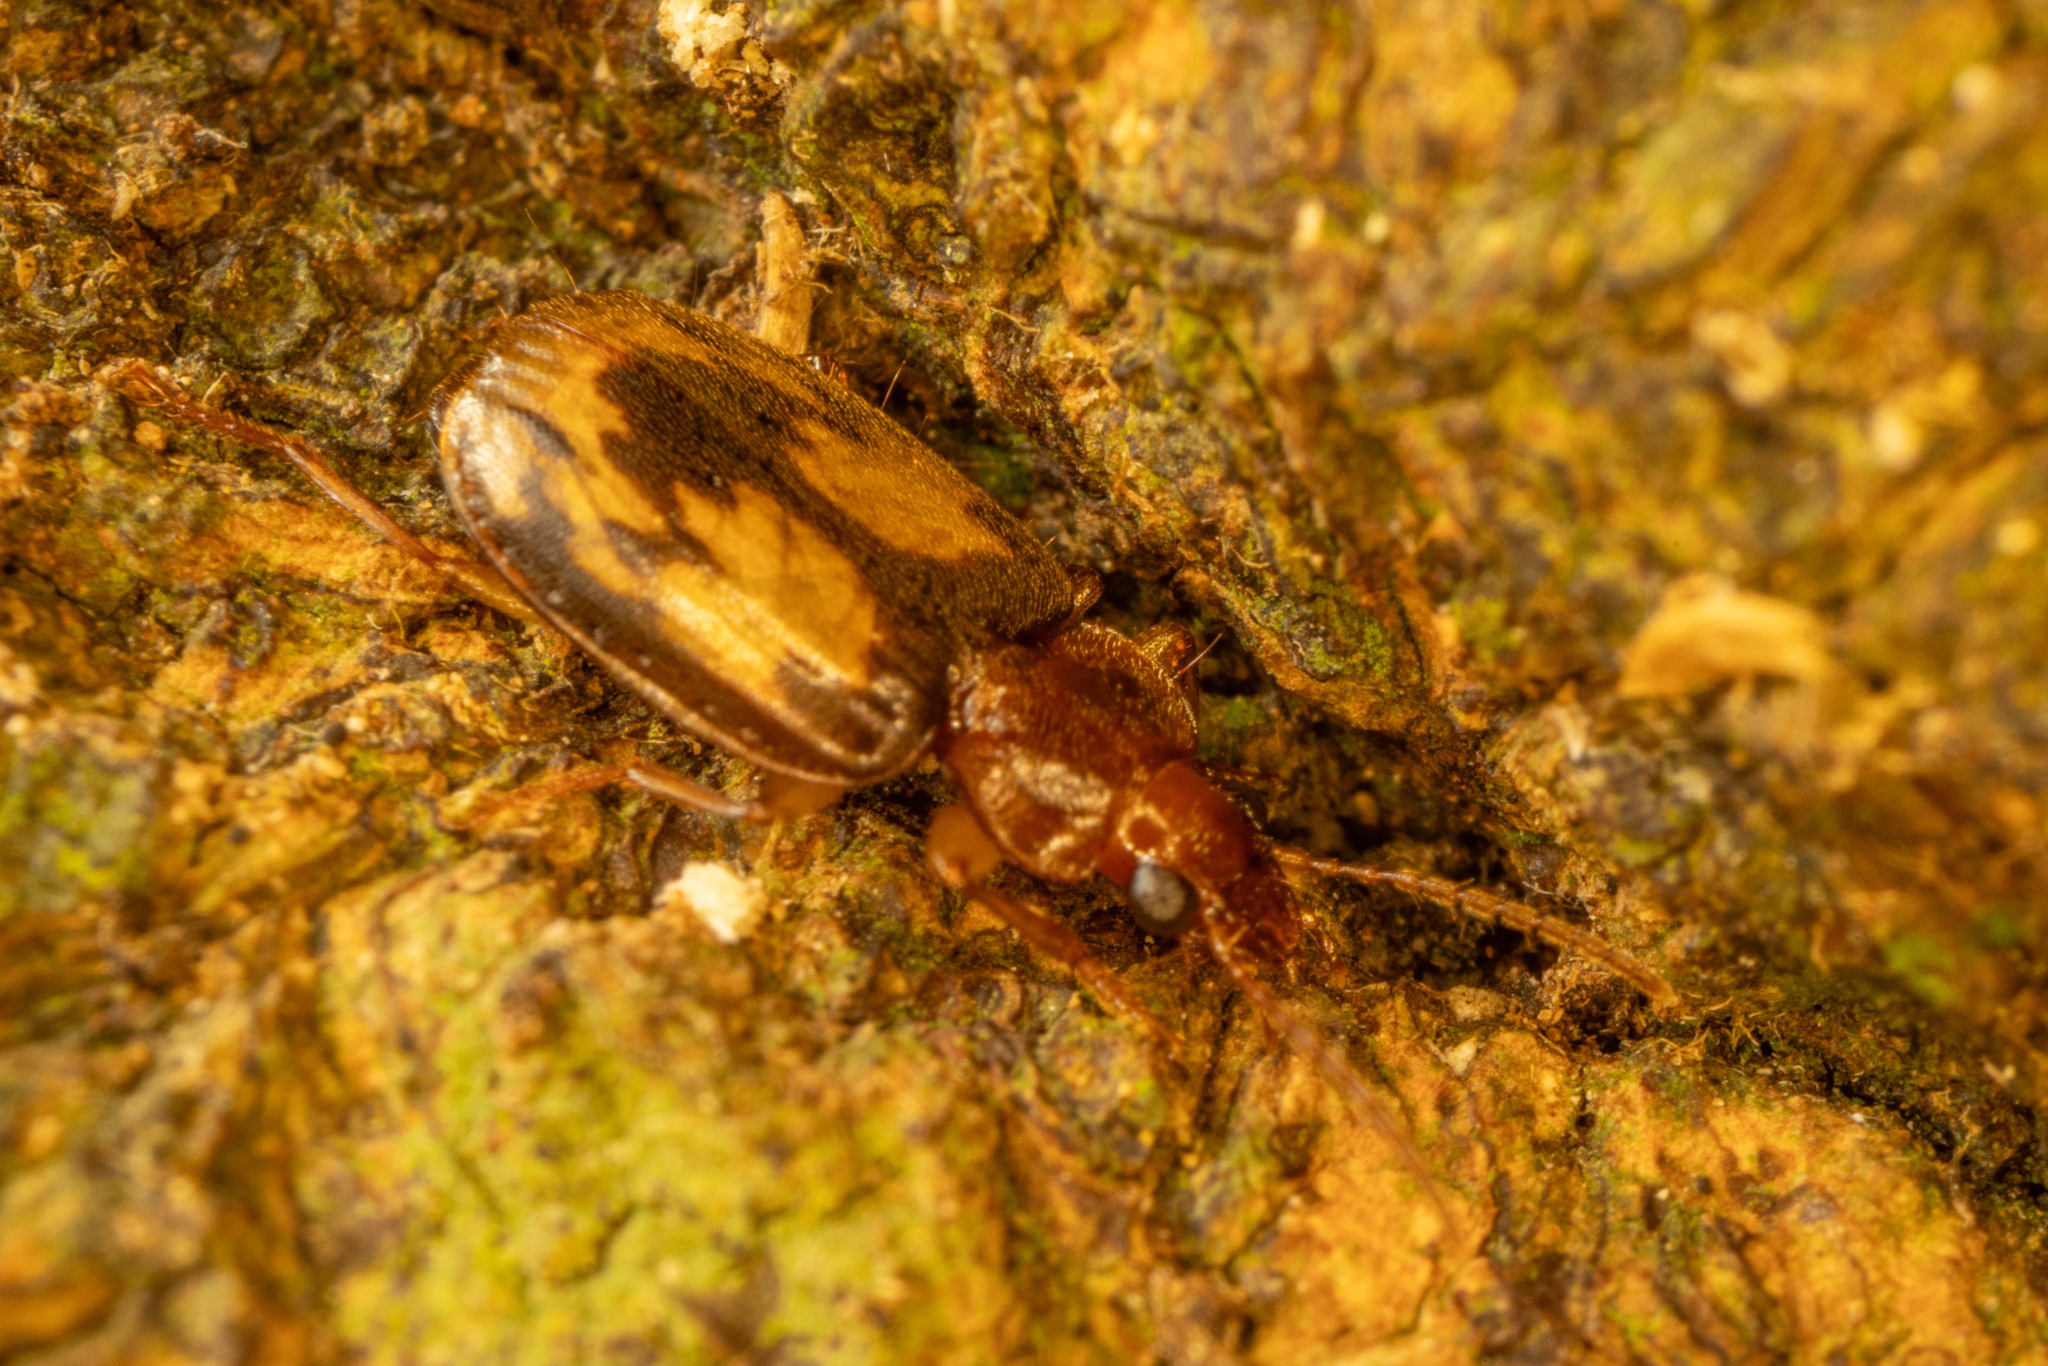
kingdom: Animalia
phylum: Arthropoda
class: Insecta
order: Coleoptera
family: Carabidae
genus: Philophlaeus
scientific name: Philophlaeus luculentus
